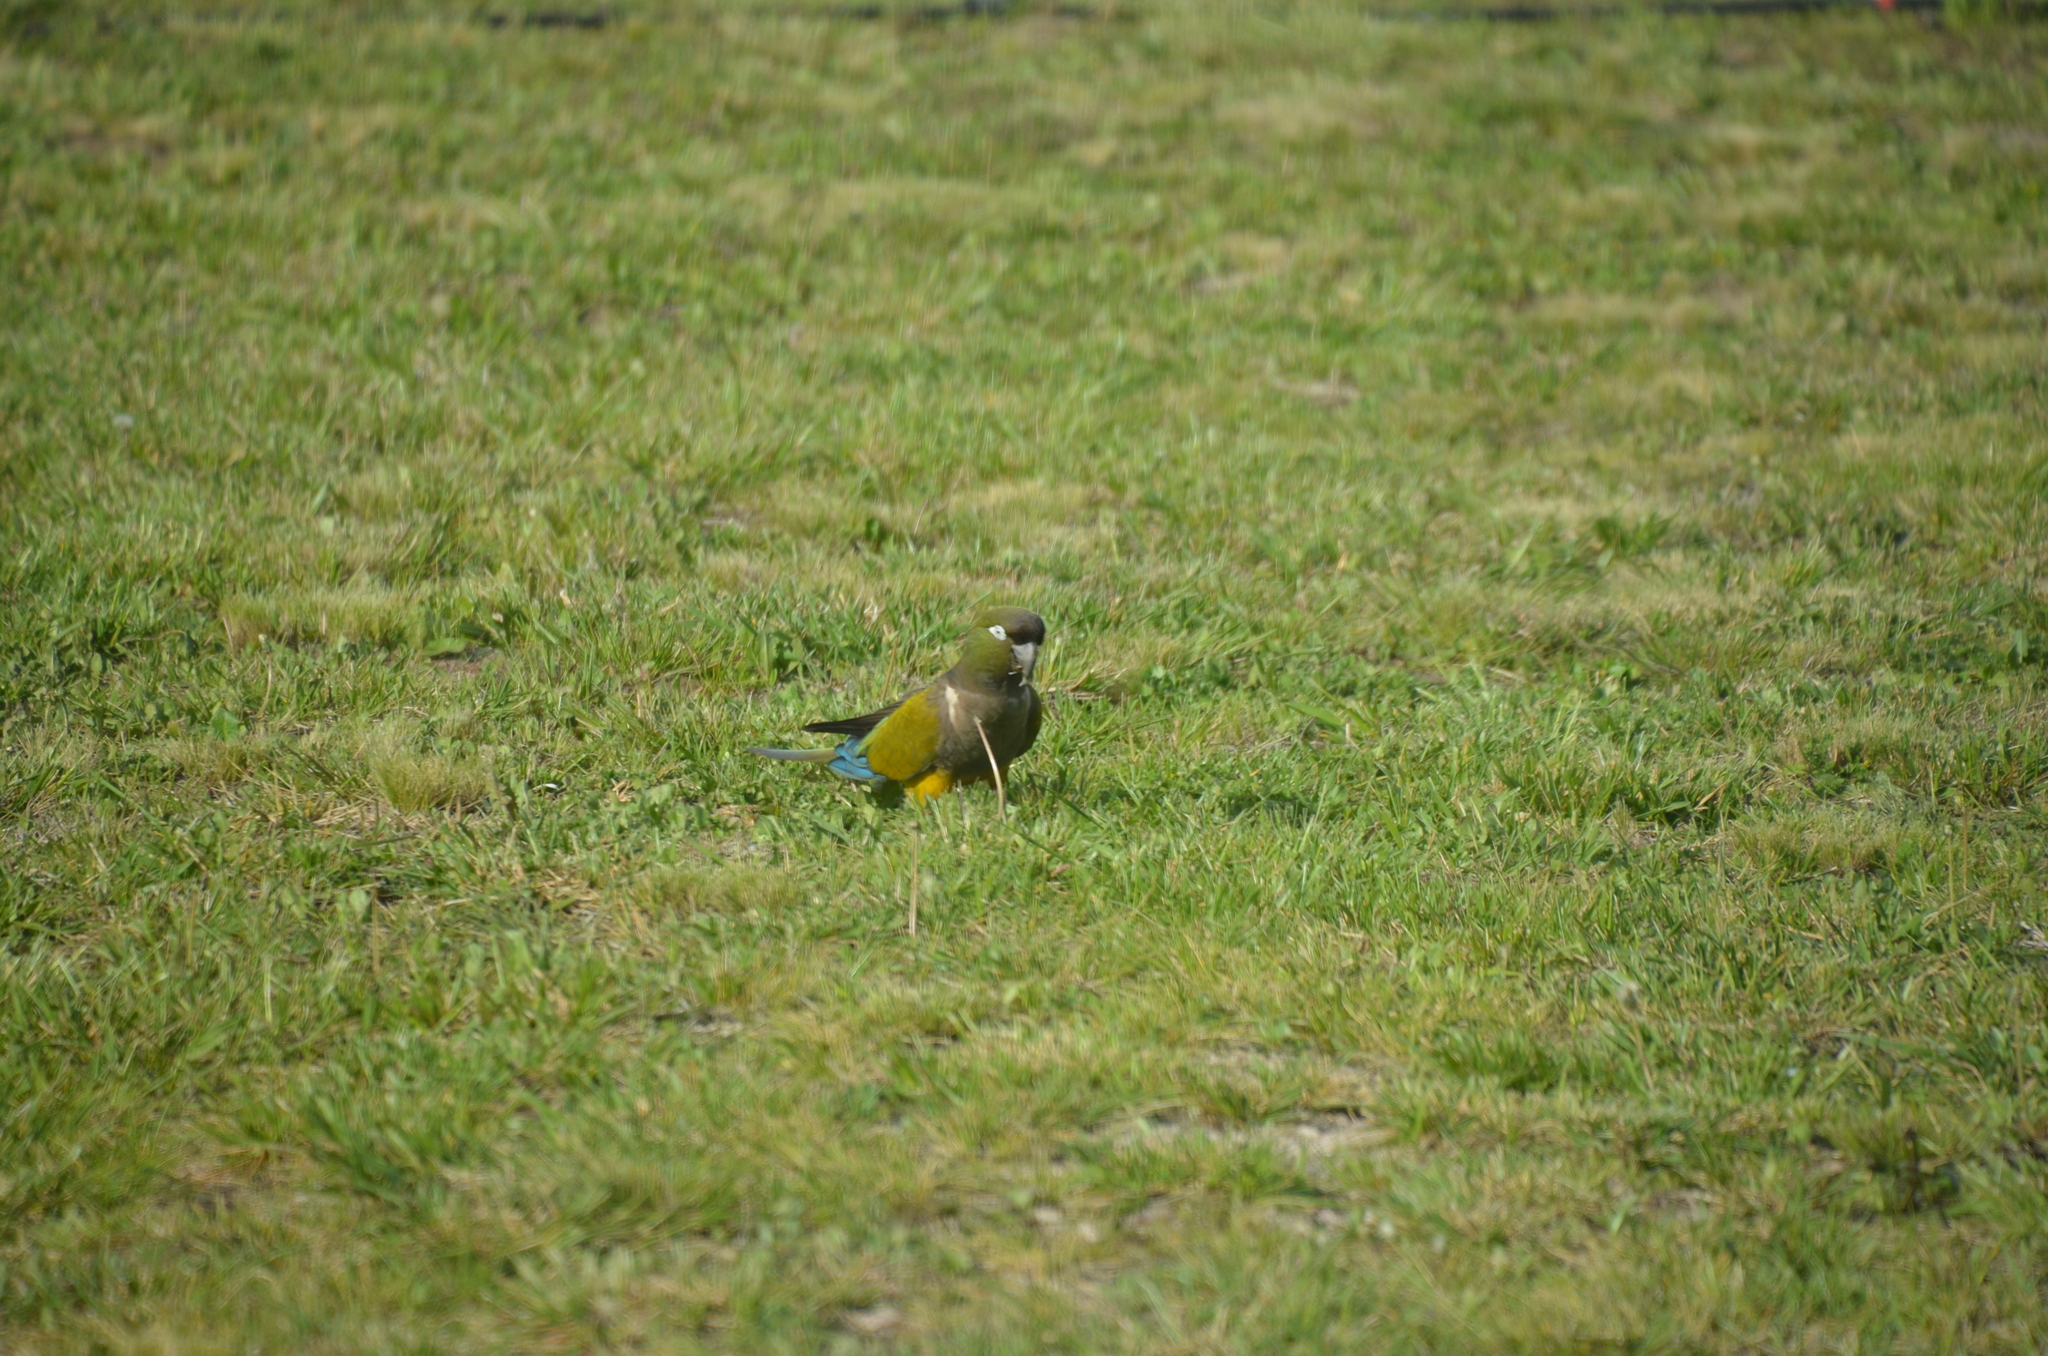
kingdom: Animalia
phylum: Chordata
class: Aves
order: Psittaciformes
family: Psittacidae
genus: Cyanoliseus
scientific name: Cyanoliseus patagonus
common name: Burrowing parrot
